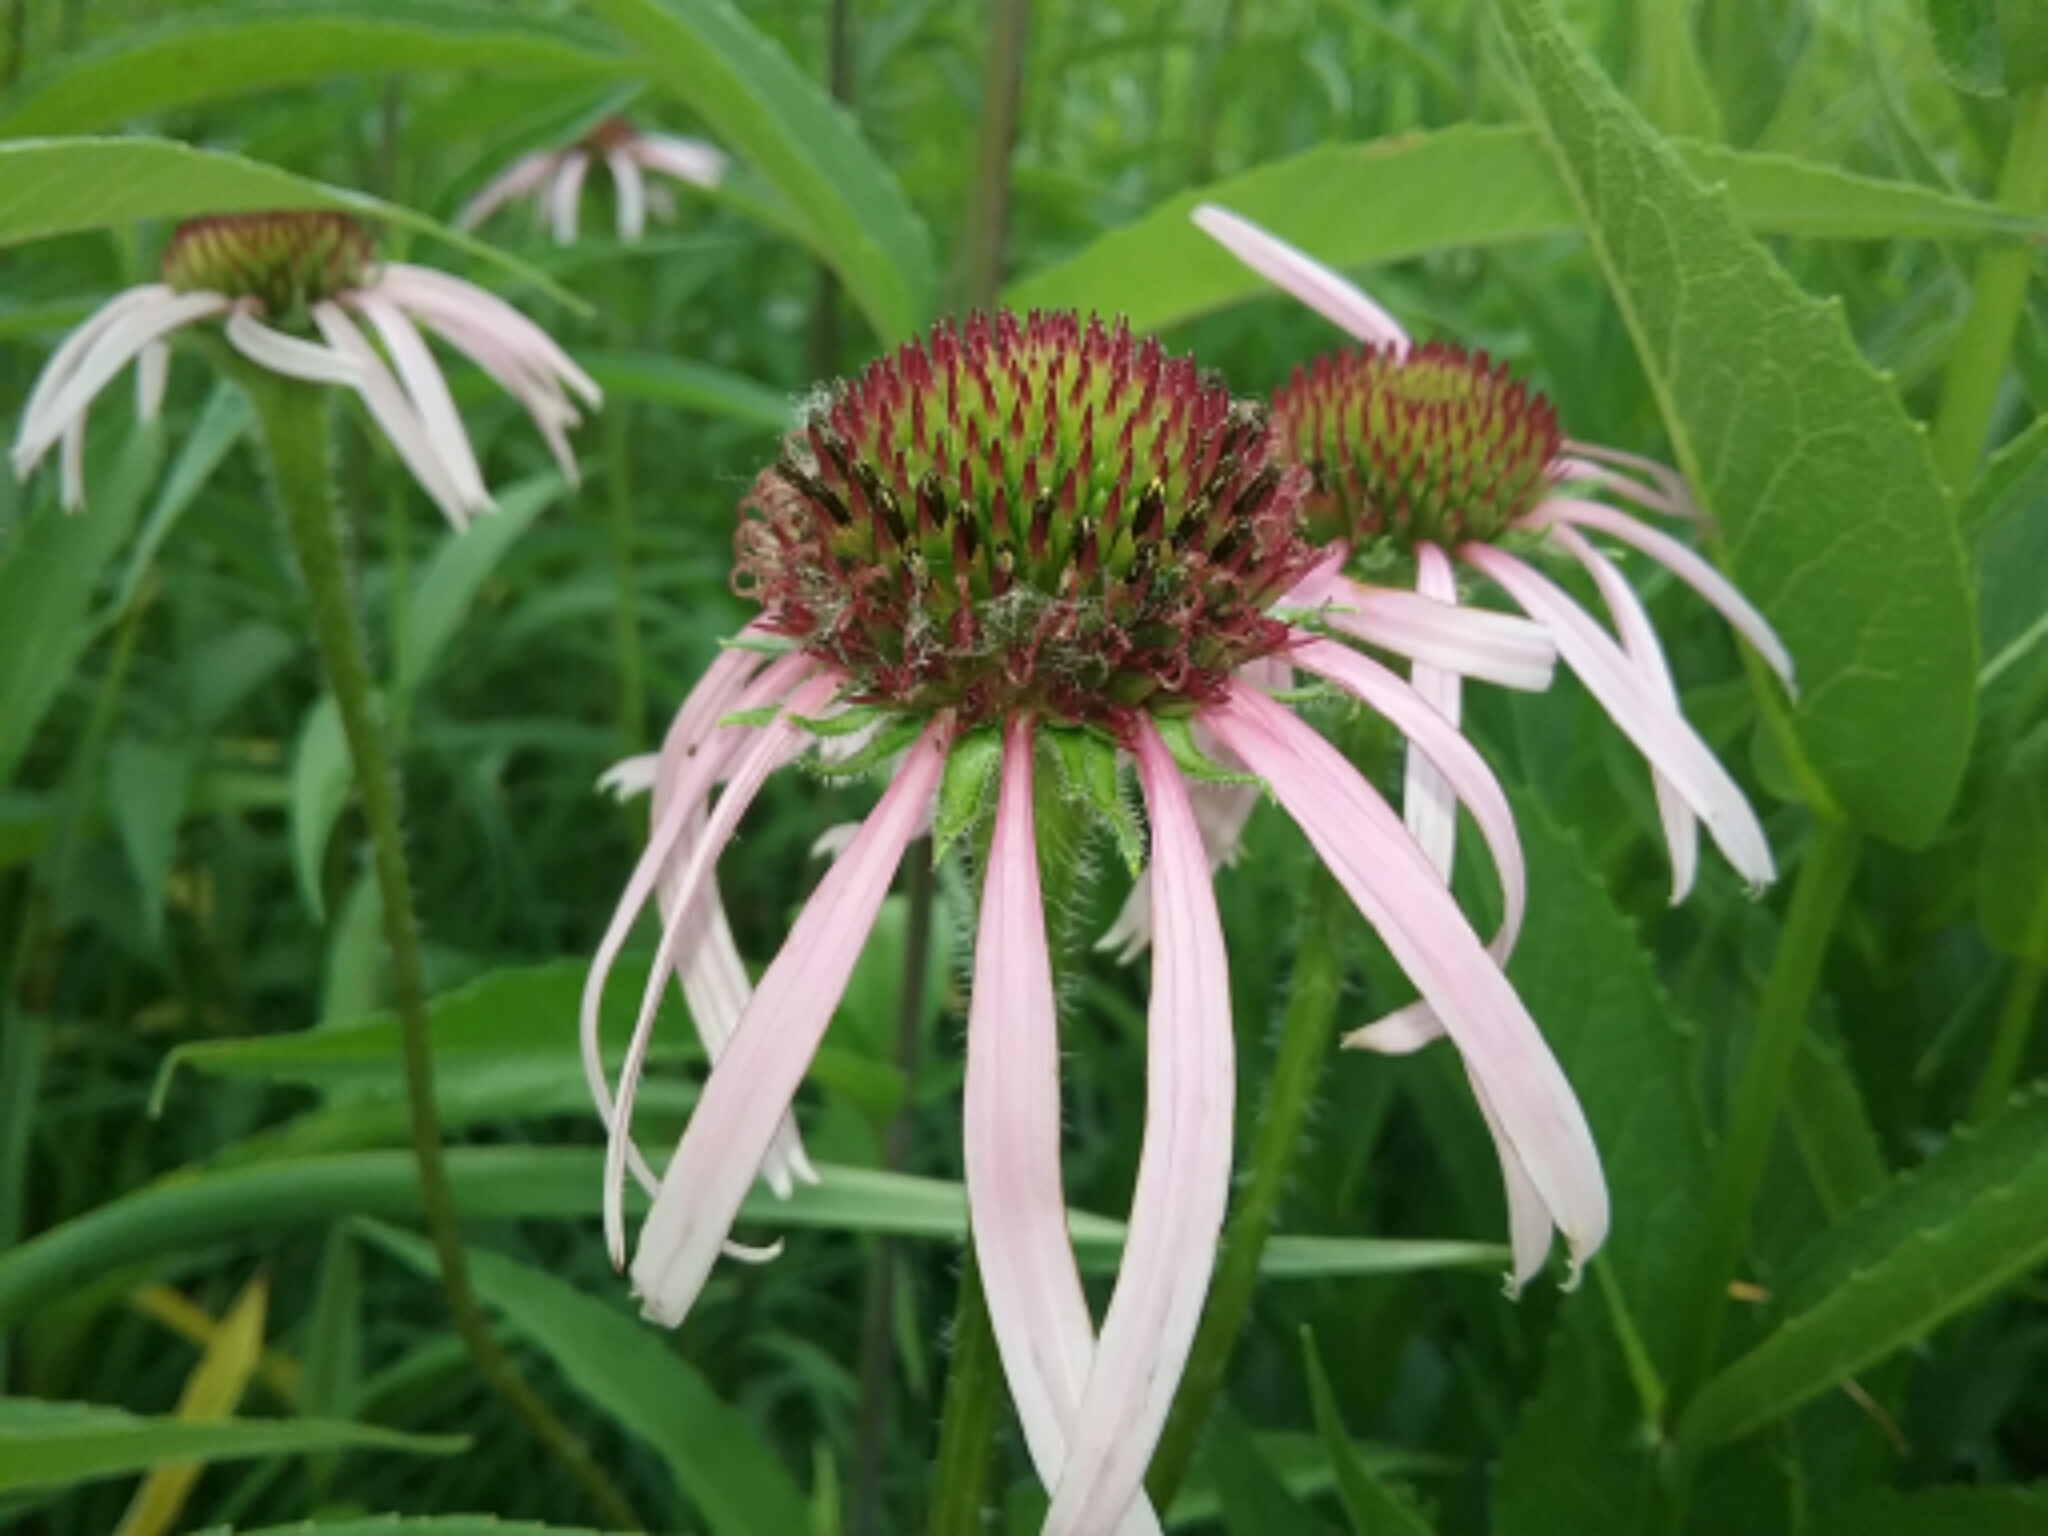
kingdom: Plantae
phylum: Tracheophyta
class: Magnoliopsida
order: Asterales
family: Asteraceae
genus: Echinacea
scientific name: Echinacea pallida
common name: Pale echinacea
